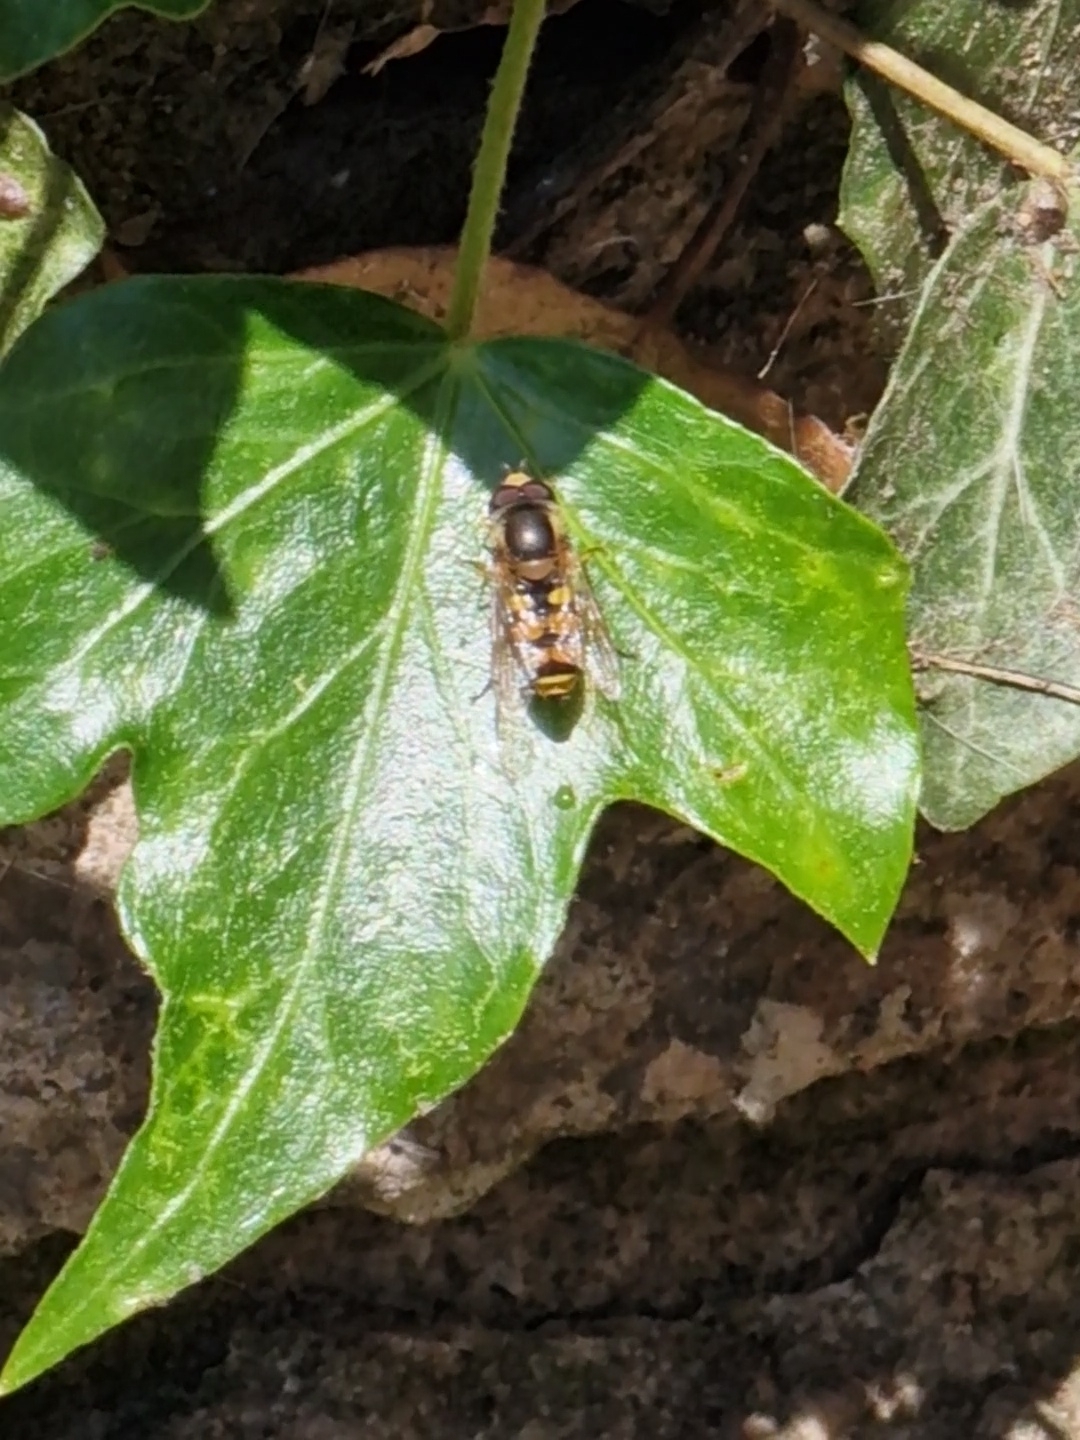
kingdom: Animalia
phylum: Arthropoda
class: Insecta
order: Diptera
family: Syrphidae
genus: Eupeodes
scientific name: Eupeodes corollae
